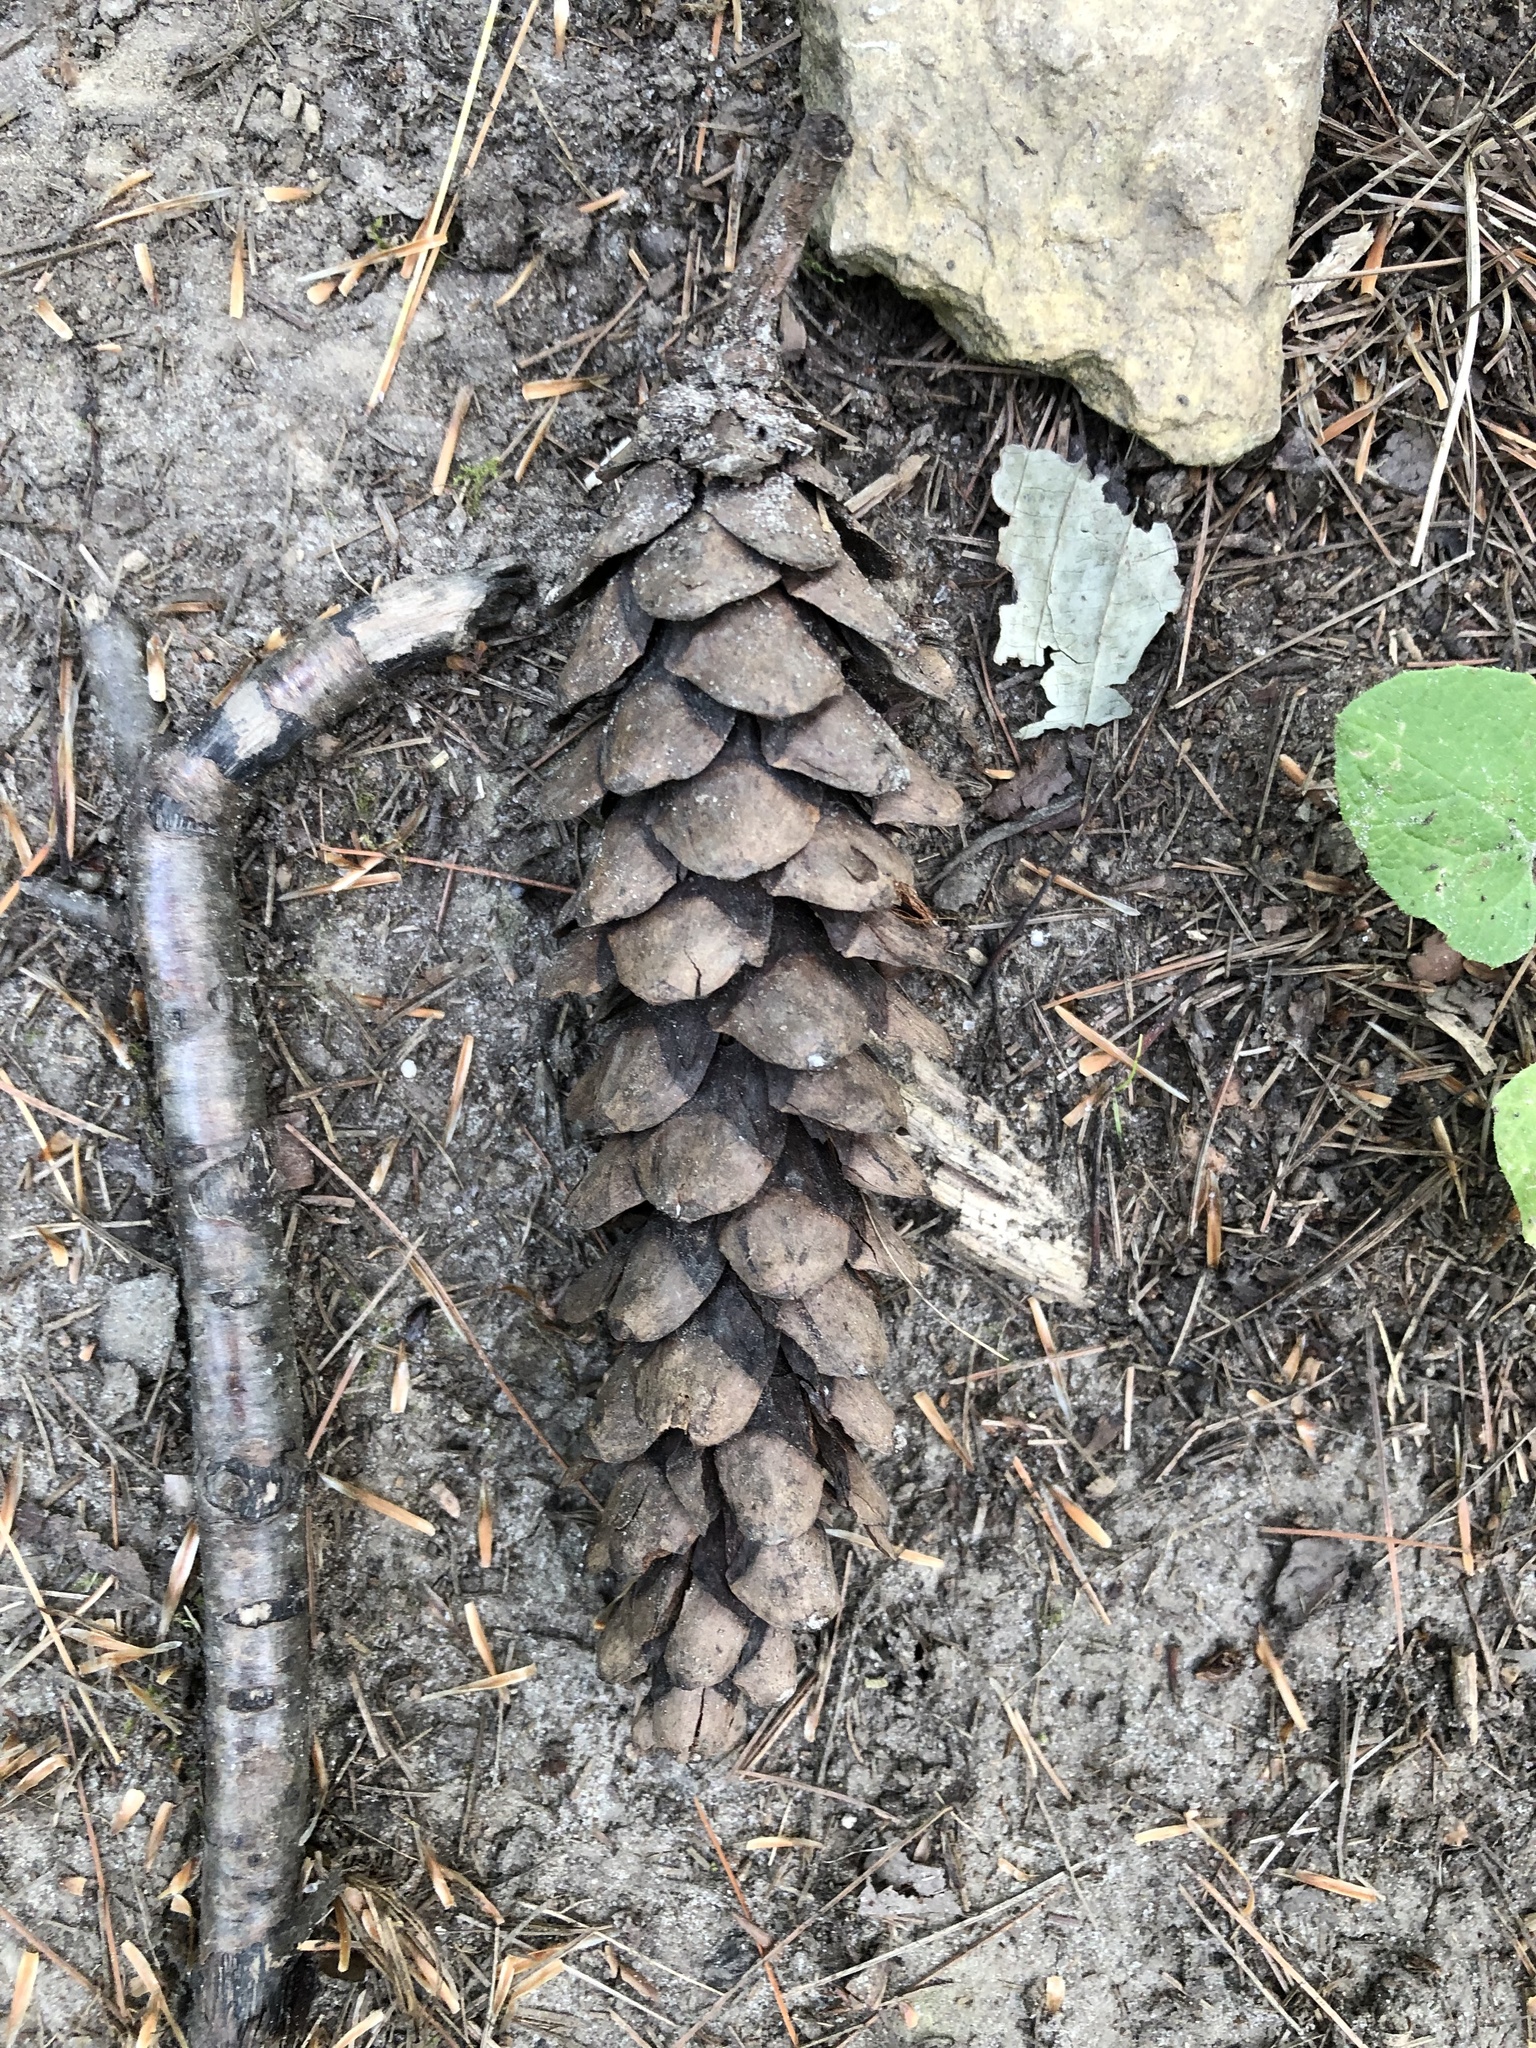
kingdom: Plantae
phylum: Tracheophyta
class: Pinopsida
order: Pinales
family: Pinaceae
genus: Pinus
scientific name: Pinus strobus
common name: Weymouth pine
